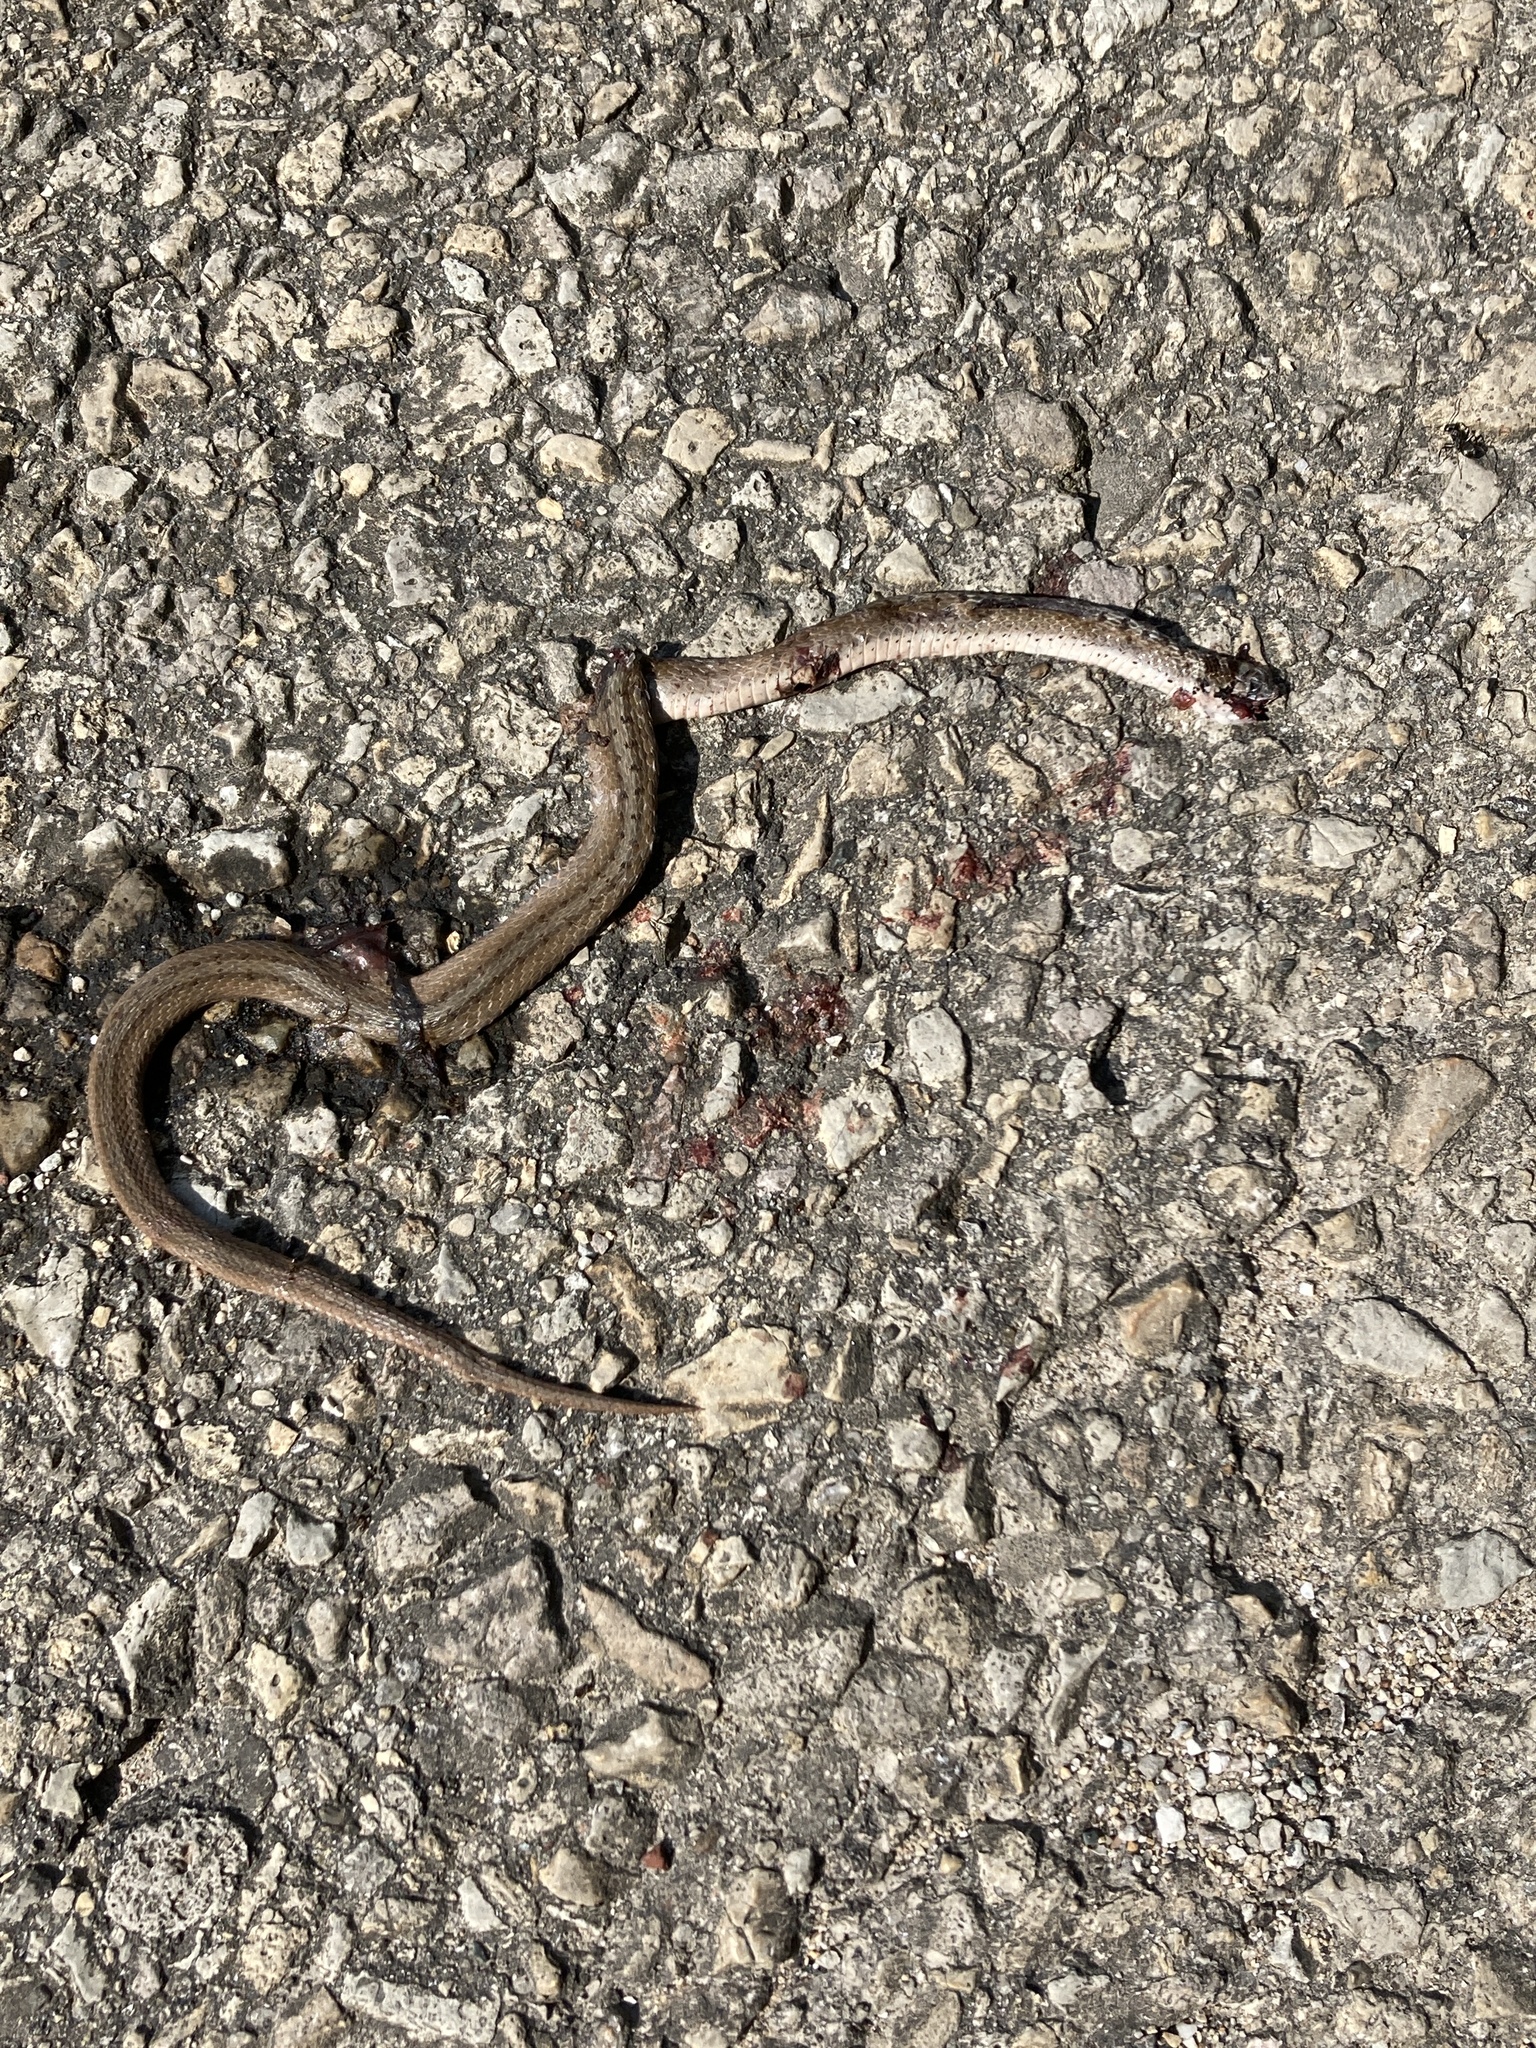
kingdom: Animalia
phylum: Chordata
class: Squamata
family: Colubridae
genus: Storeria
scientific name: Storeria dekayi
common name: (dekay’s) brown snake
